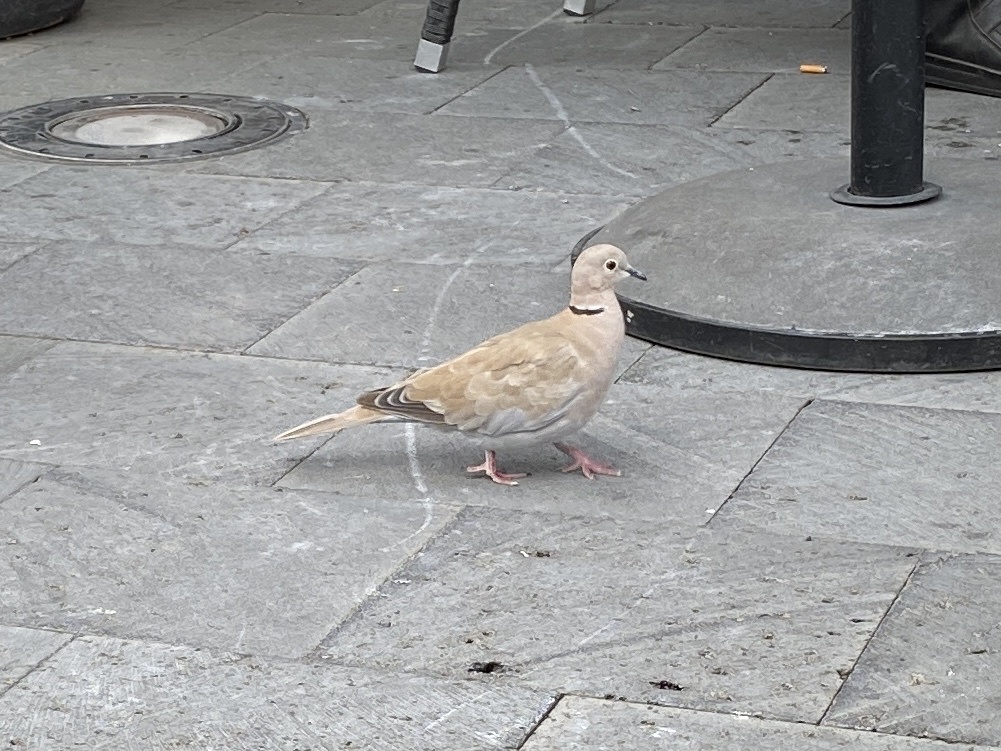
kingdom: Animalia
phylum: Chordata
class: Aves
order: Columbiformes
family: Columbidae
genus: Streptopelia
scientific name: Streptopelia roseogrisea
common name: African collared dove
